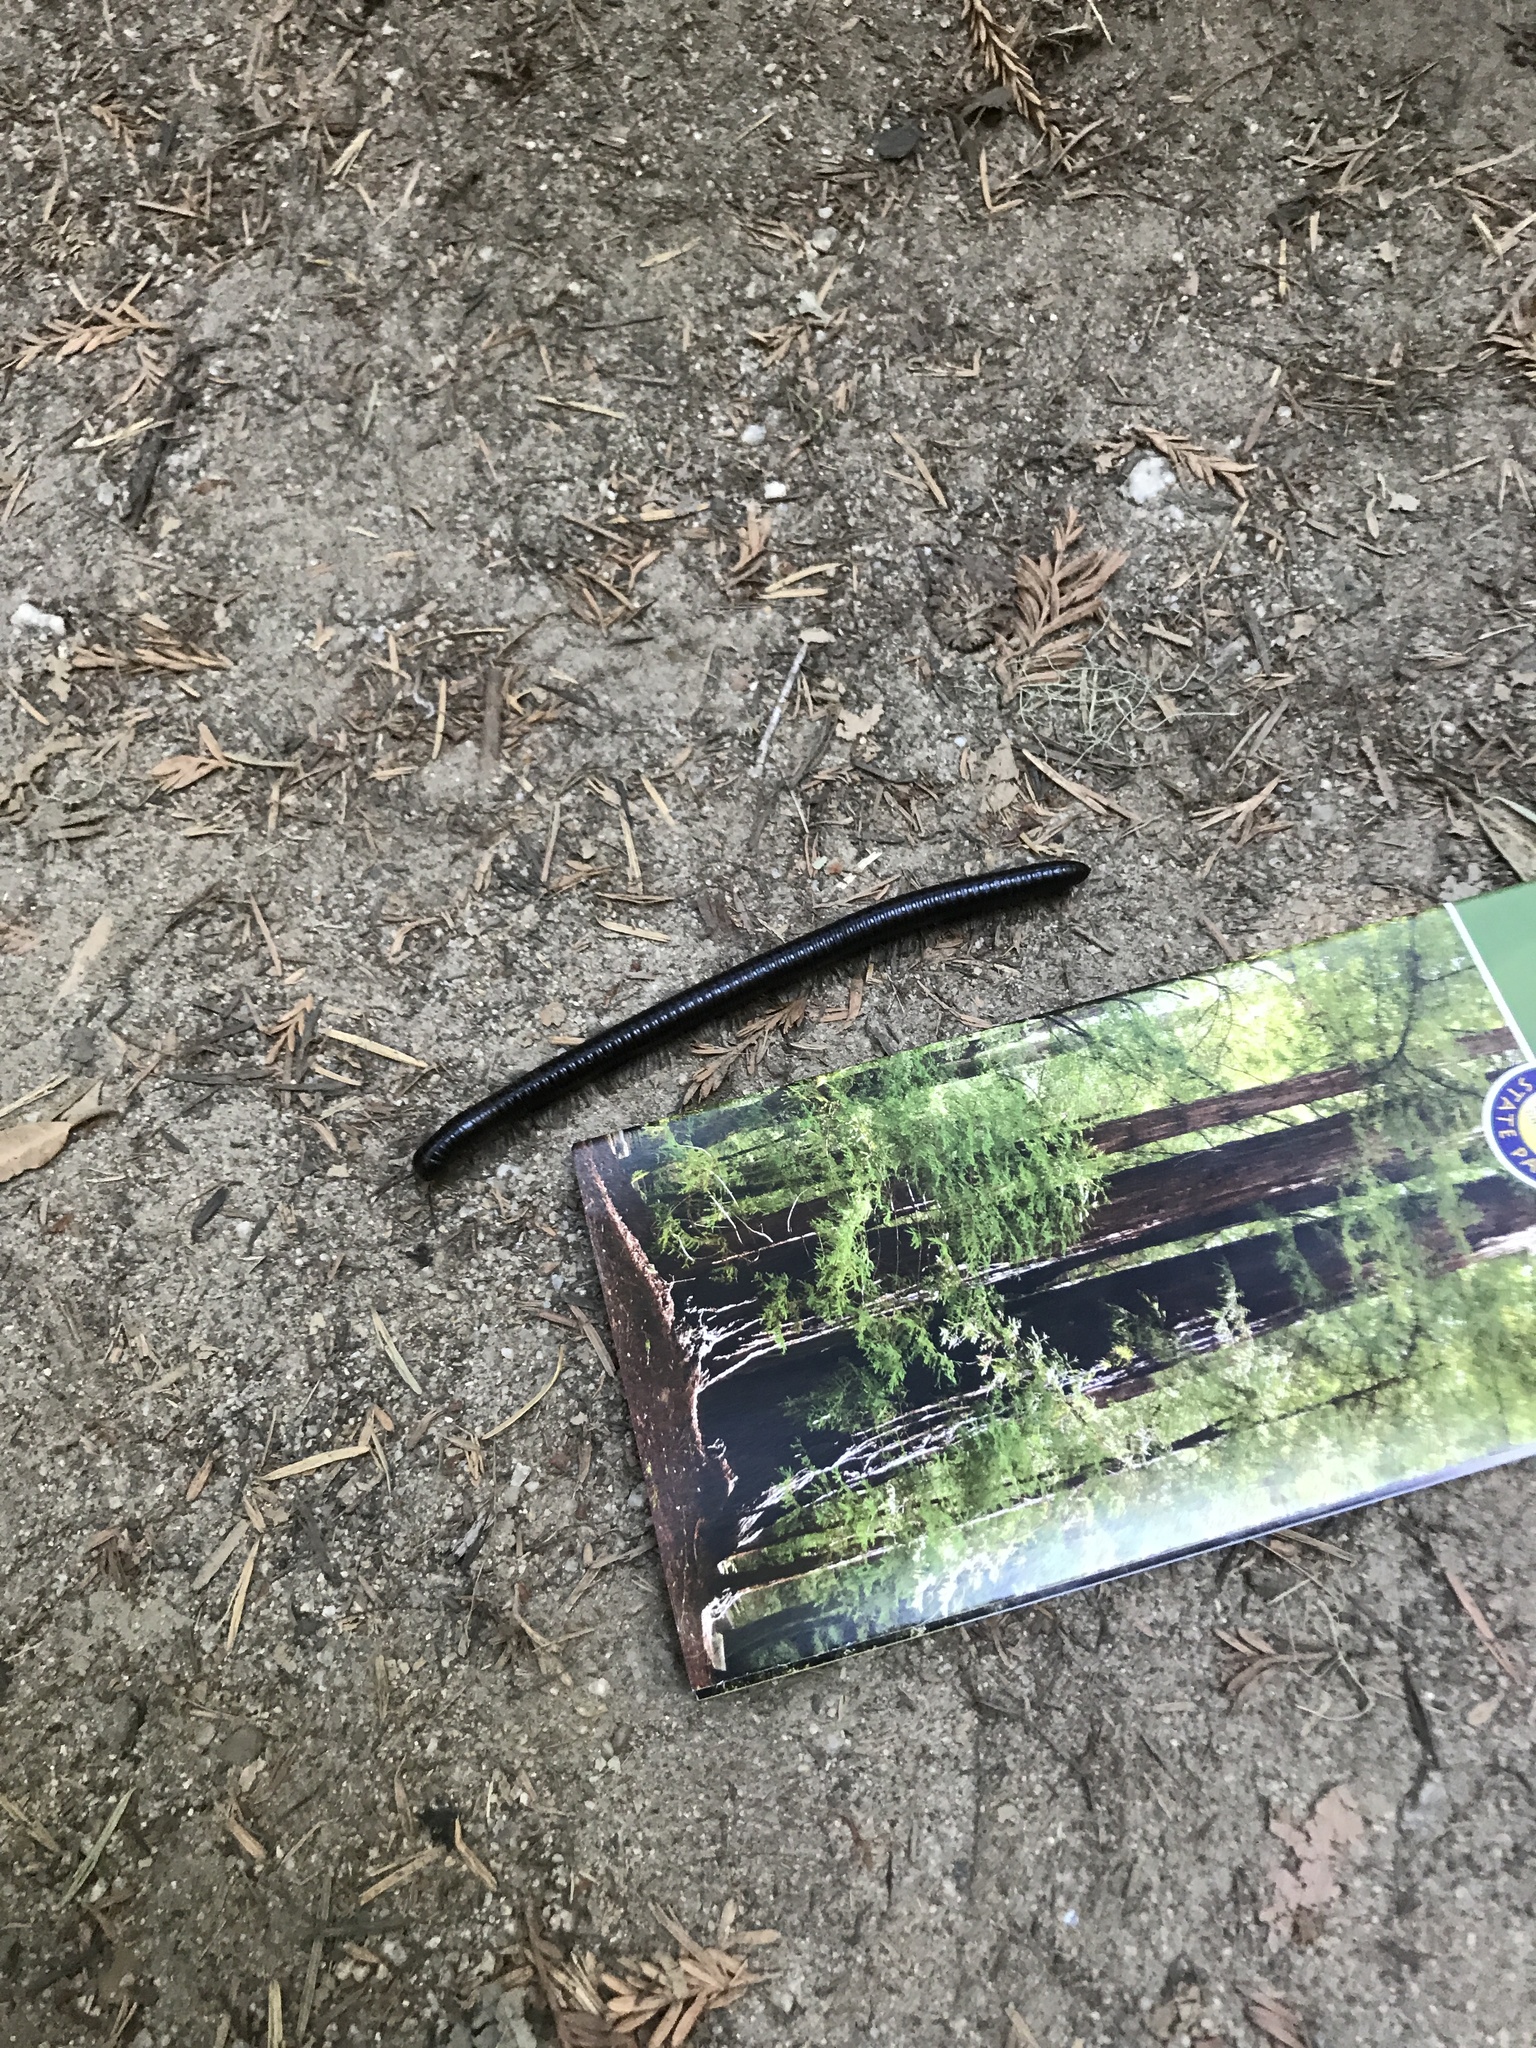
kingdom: Animalia
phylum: Arthropoda
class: Diplopoda
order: Julida
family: Paeromopodidae
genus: Paeromopus
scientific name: Paeromopus angusticeps
